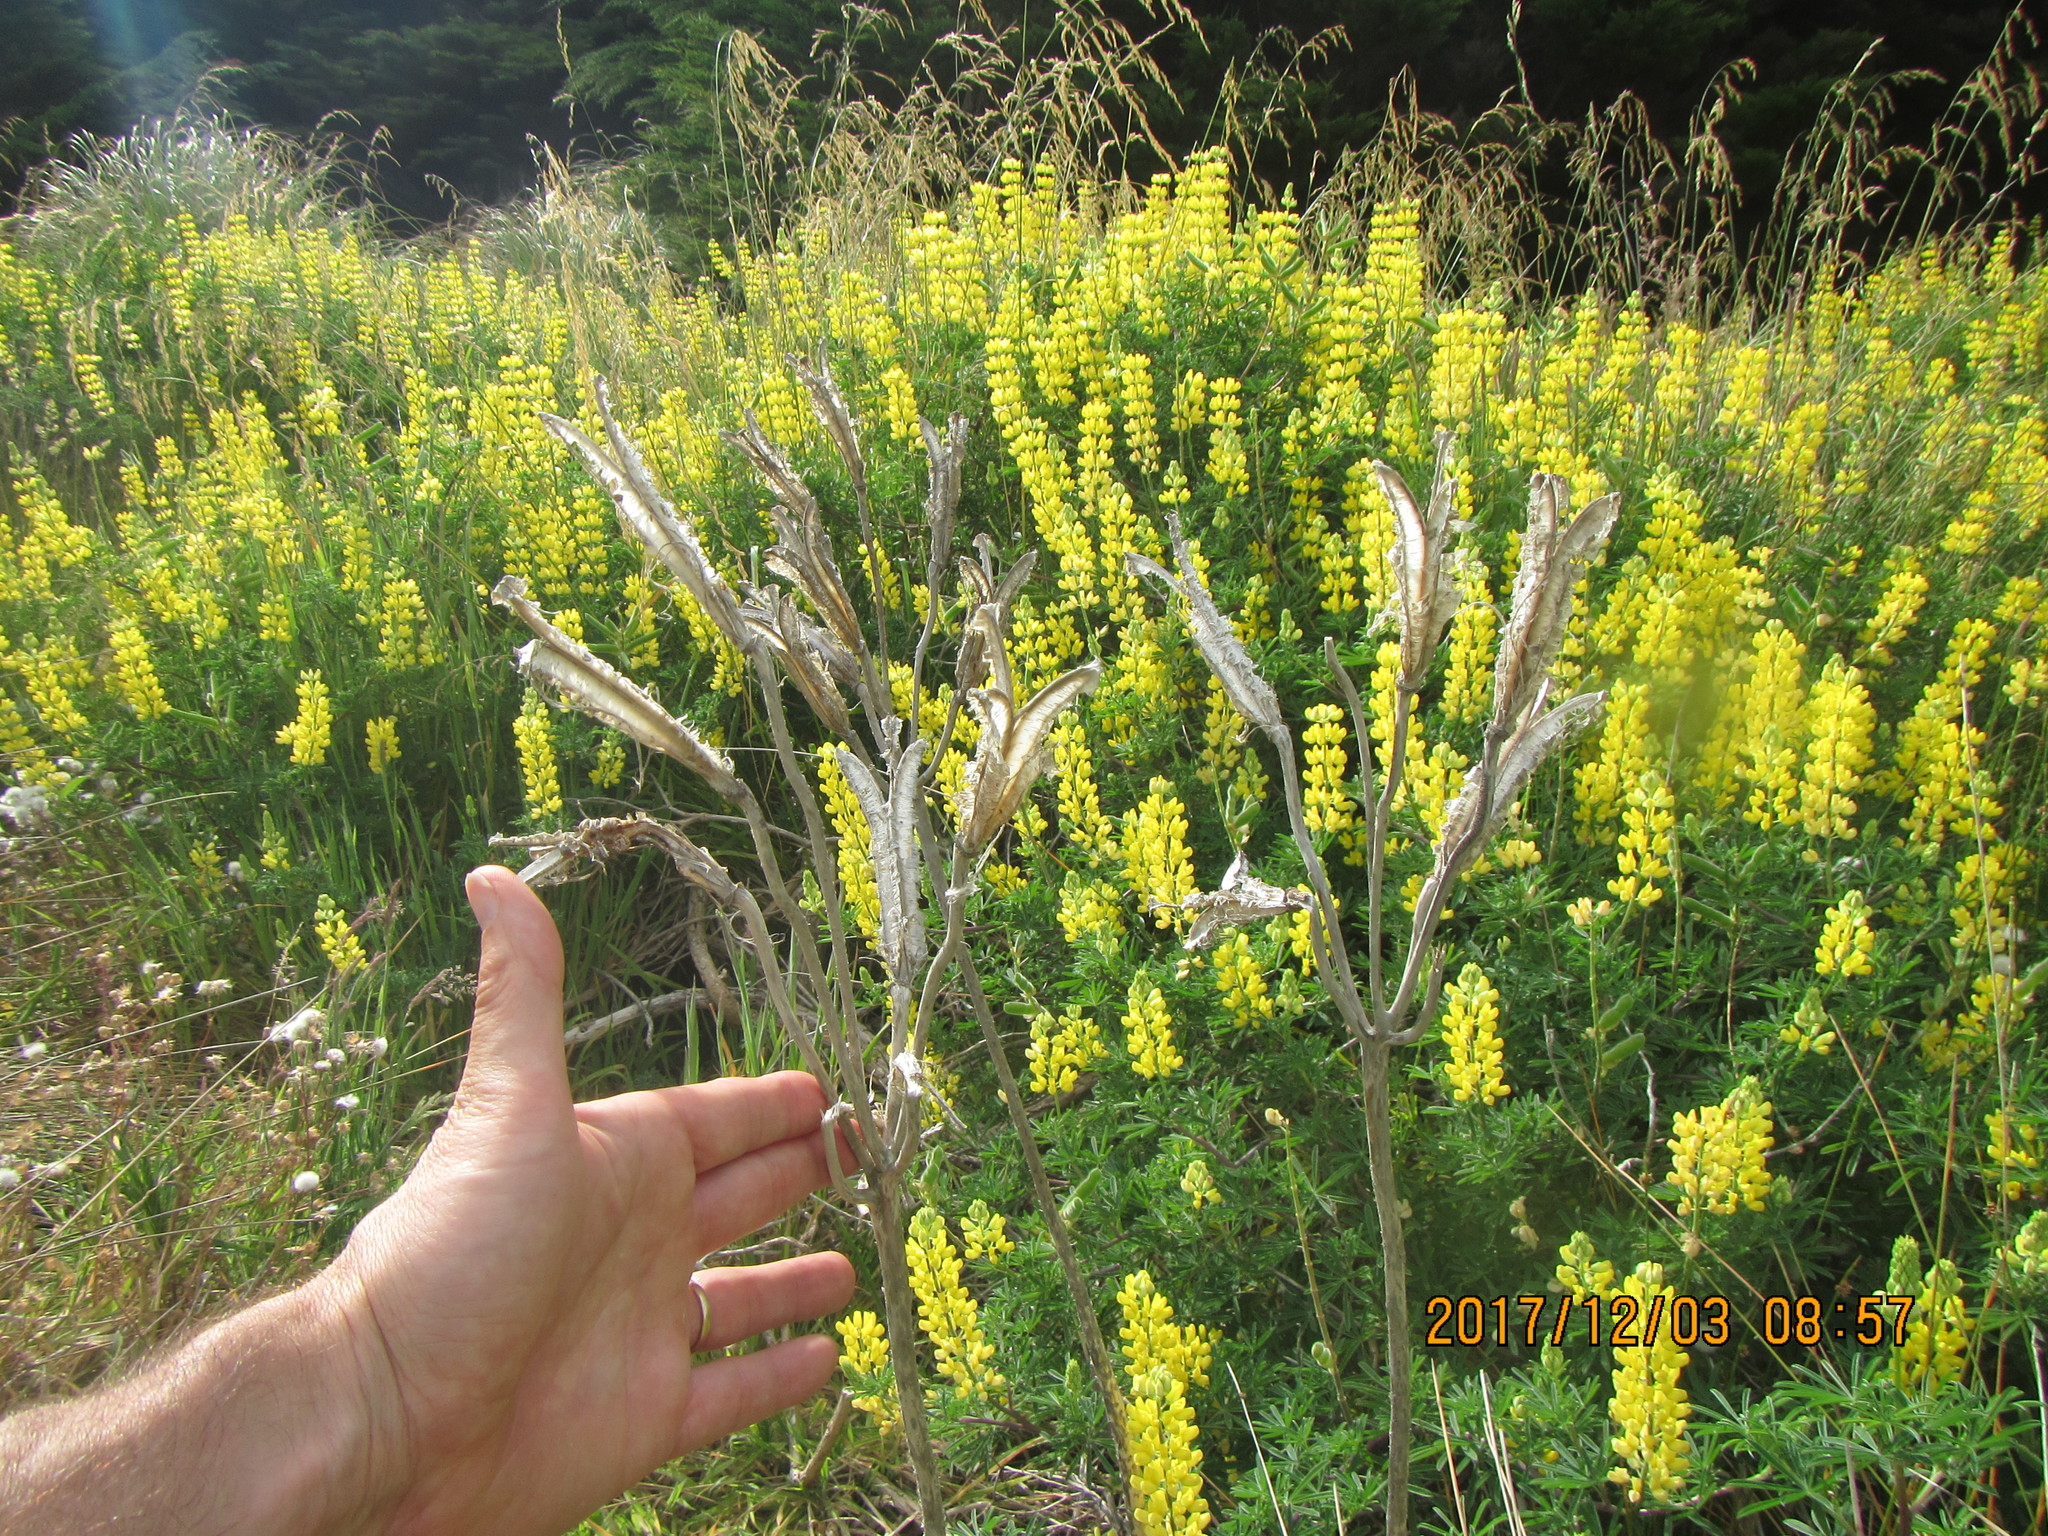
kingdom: Plantae
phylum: Tracheophyta
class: Liliopsida
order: Liliales
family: Liliaceae
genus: Lilium
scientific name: Lilium formosanum
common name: Formosa lily
